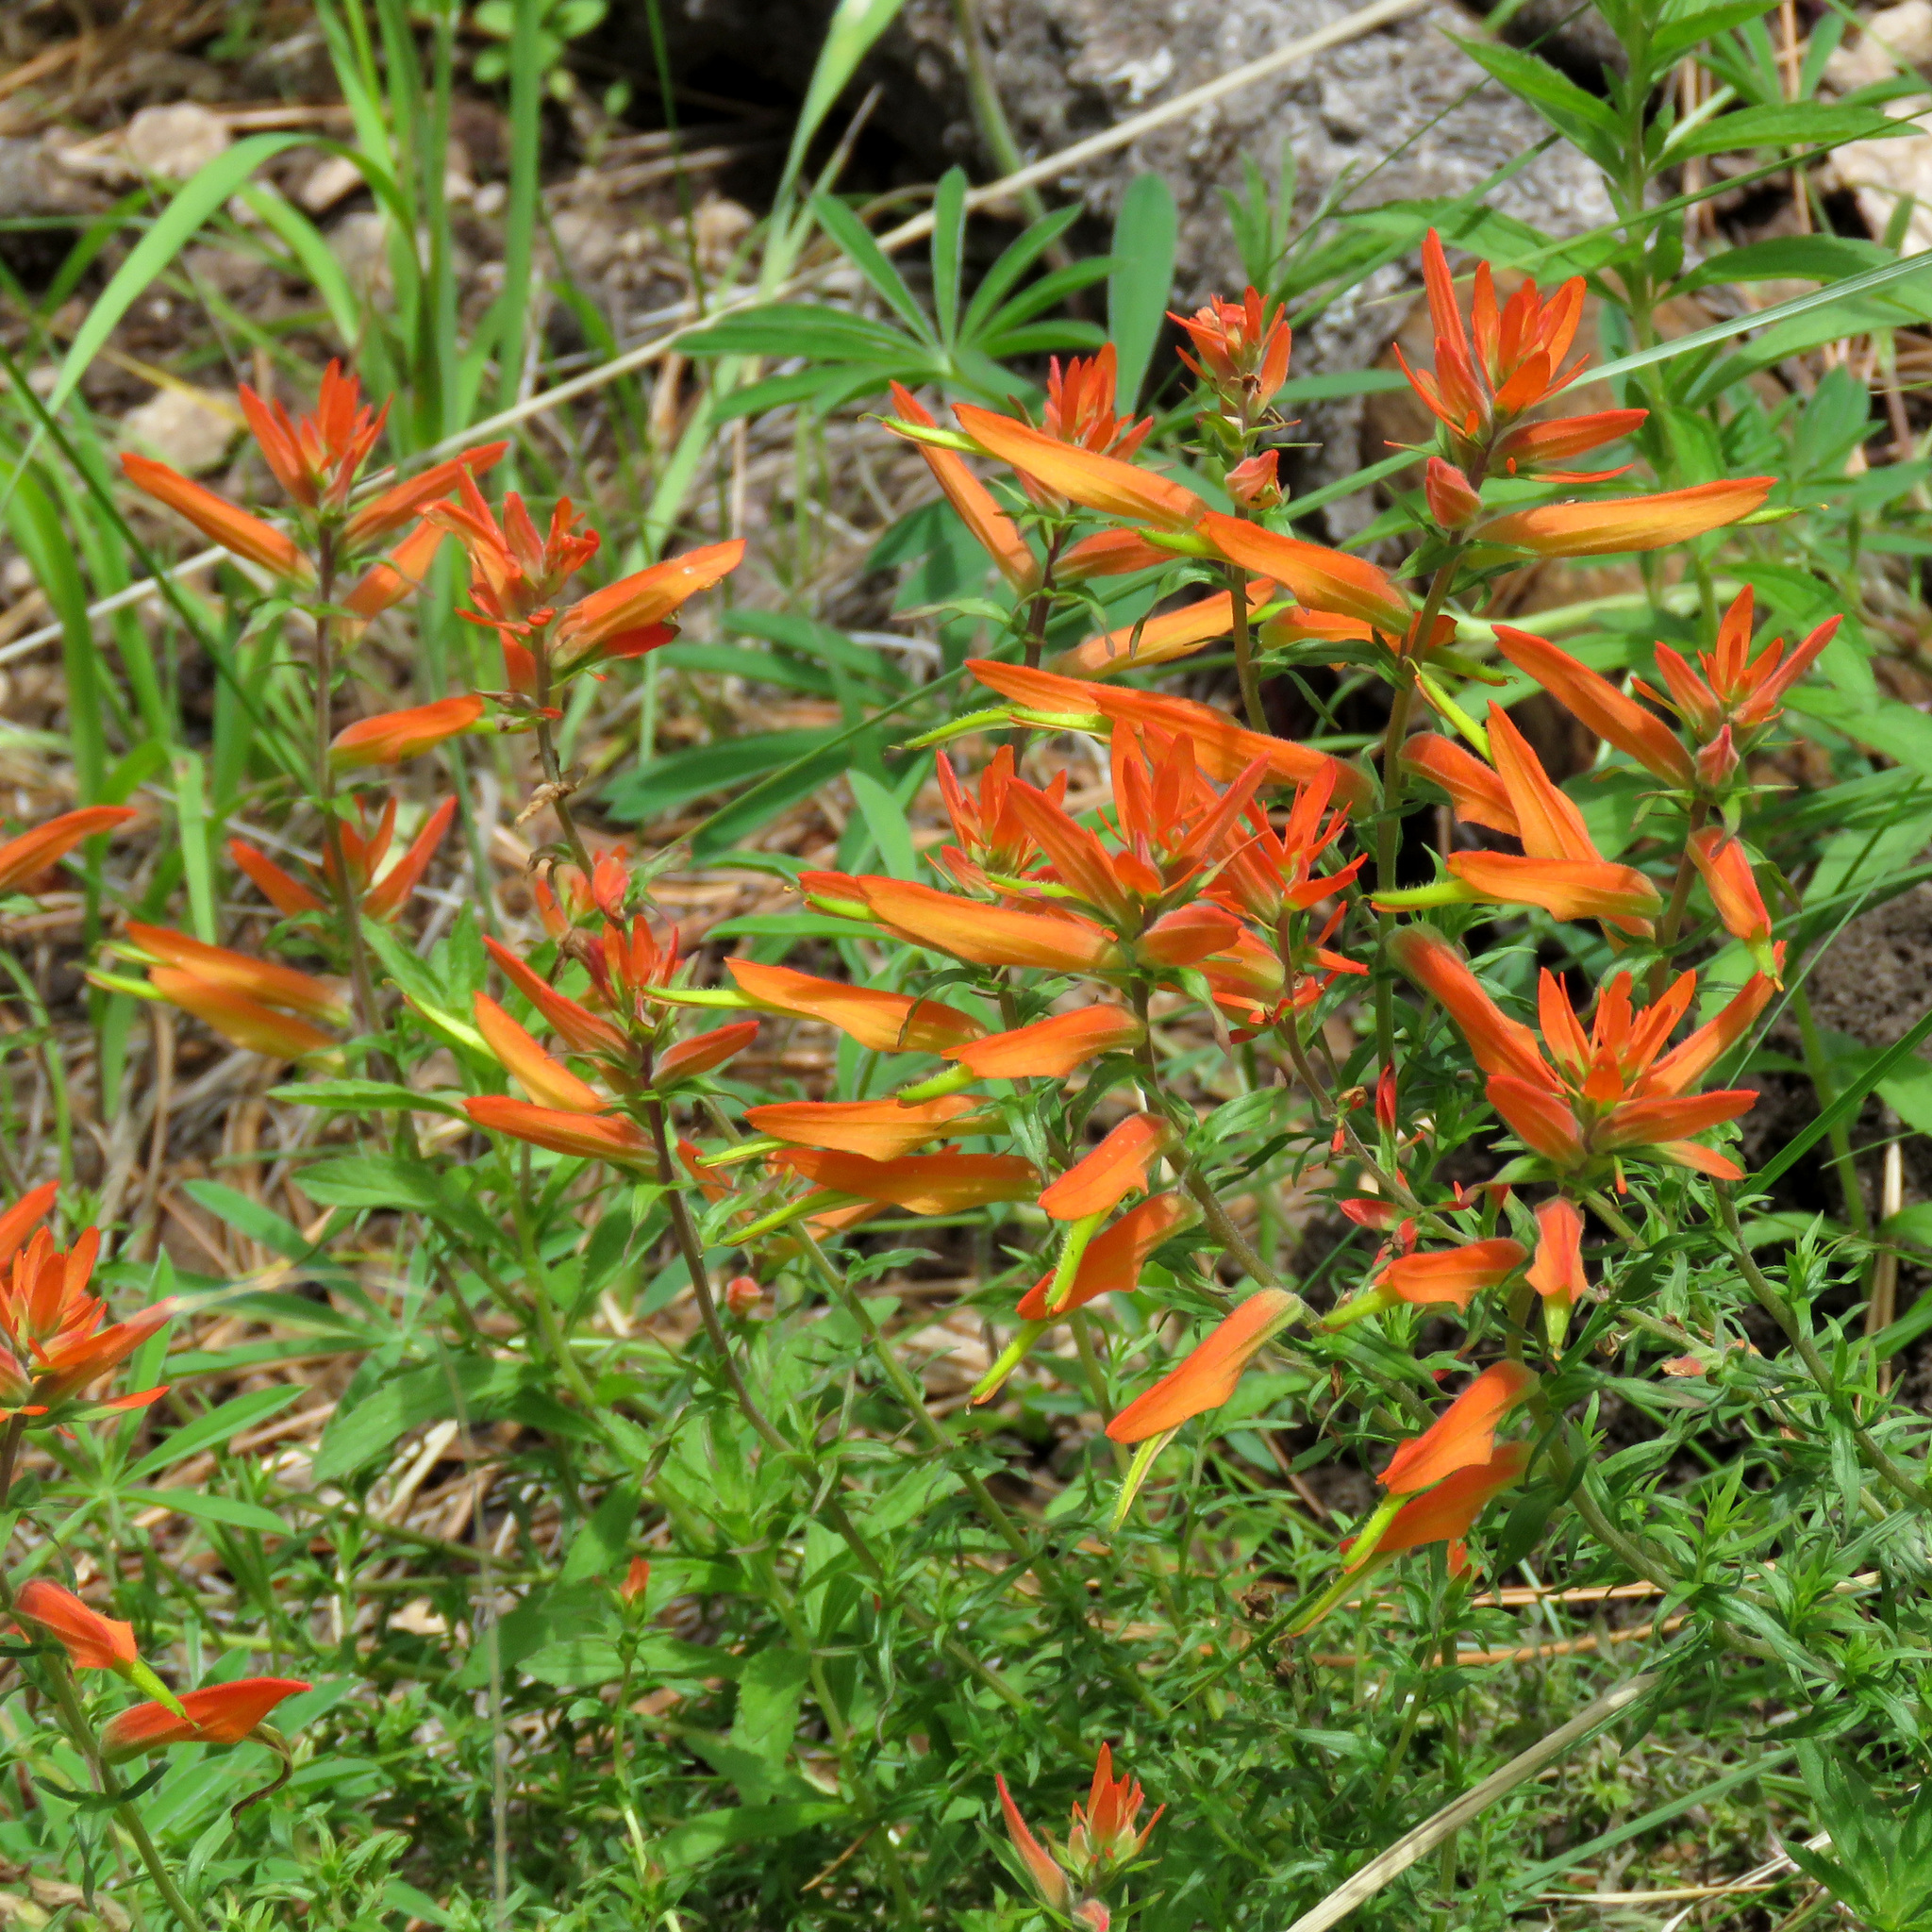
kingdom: Plantae
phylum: Tracheophyta
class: Magnoliopsida
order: Lamiales
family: Orobanchaceae
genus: Castilleja
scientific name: Castilleja patriotica
